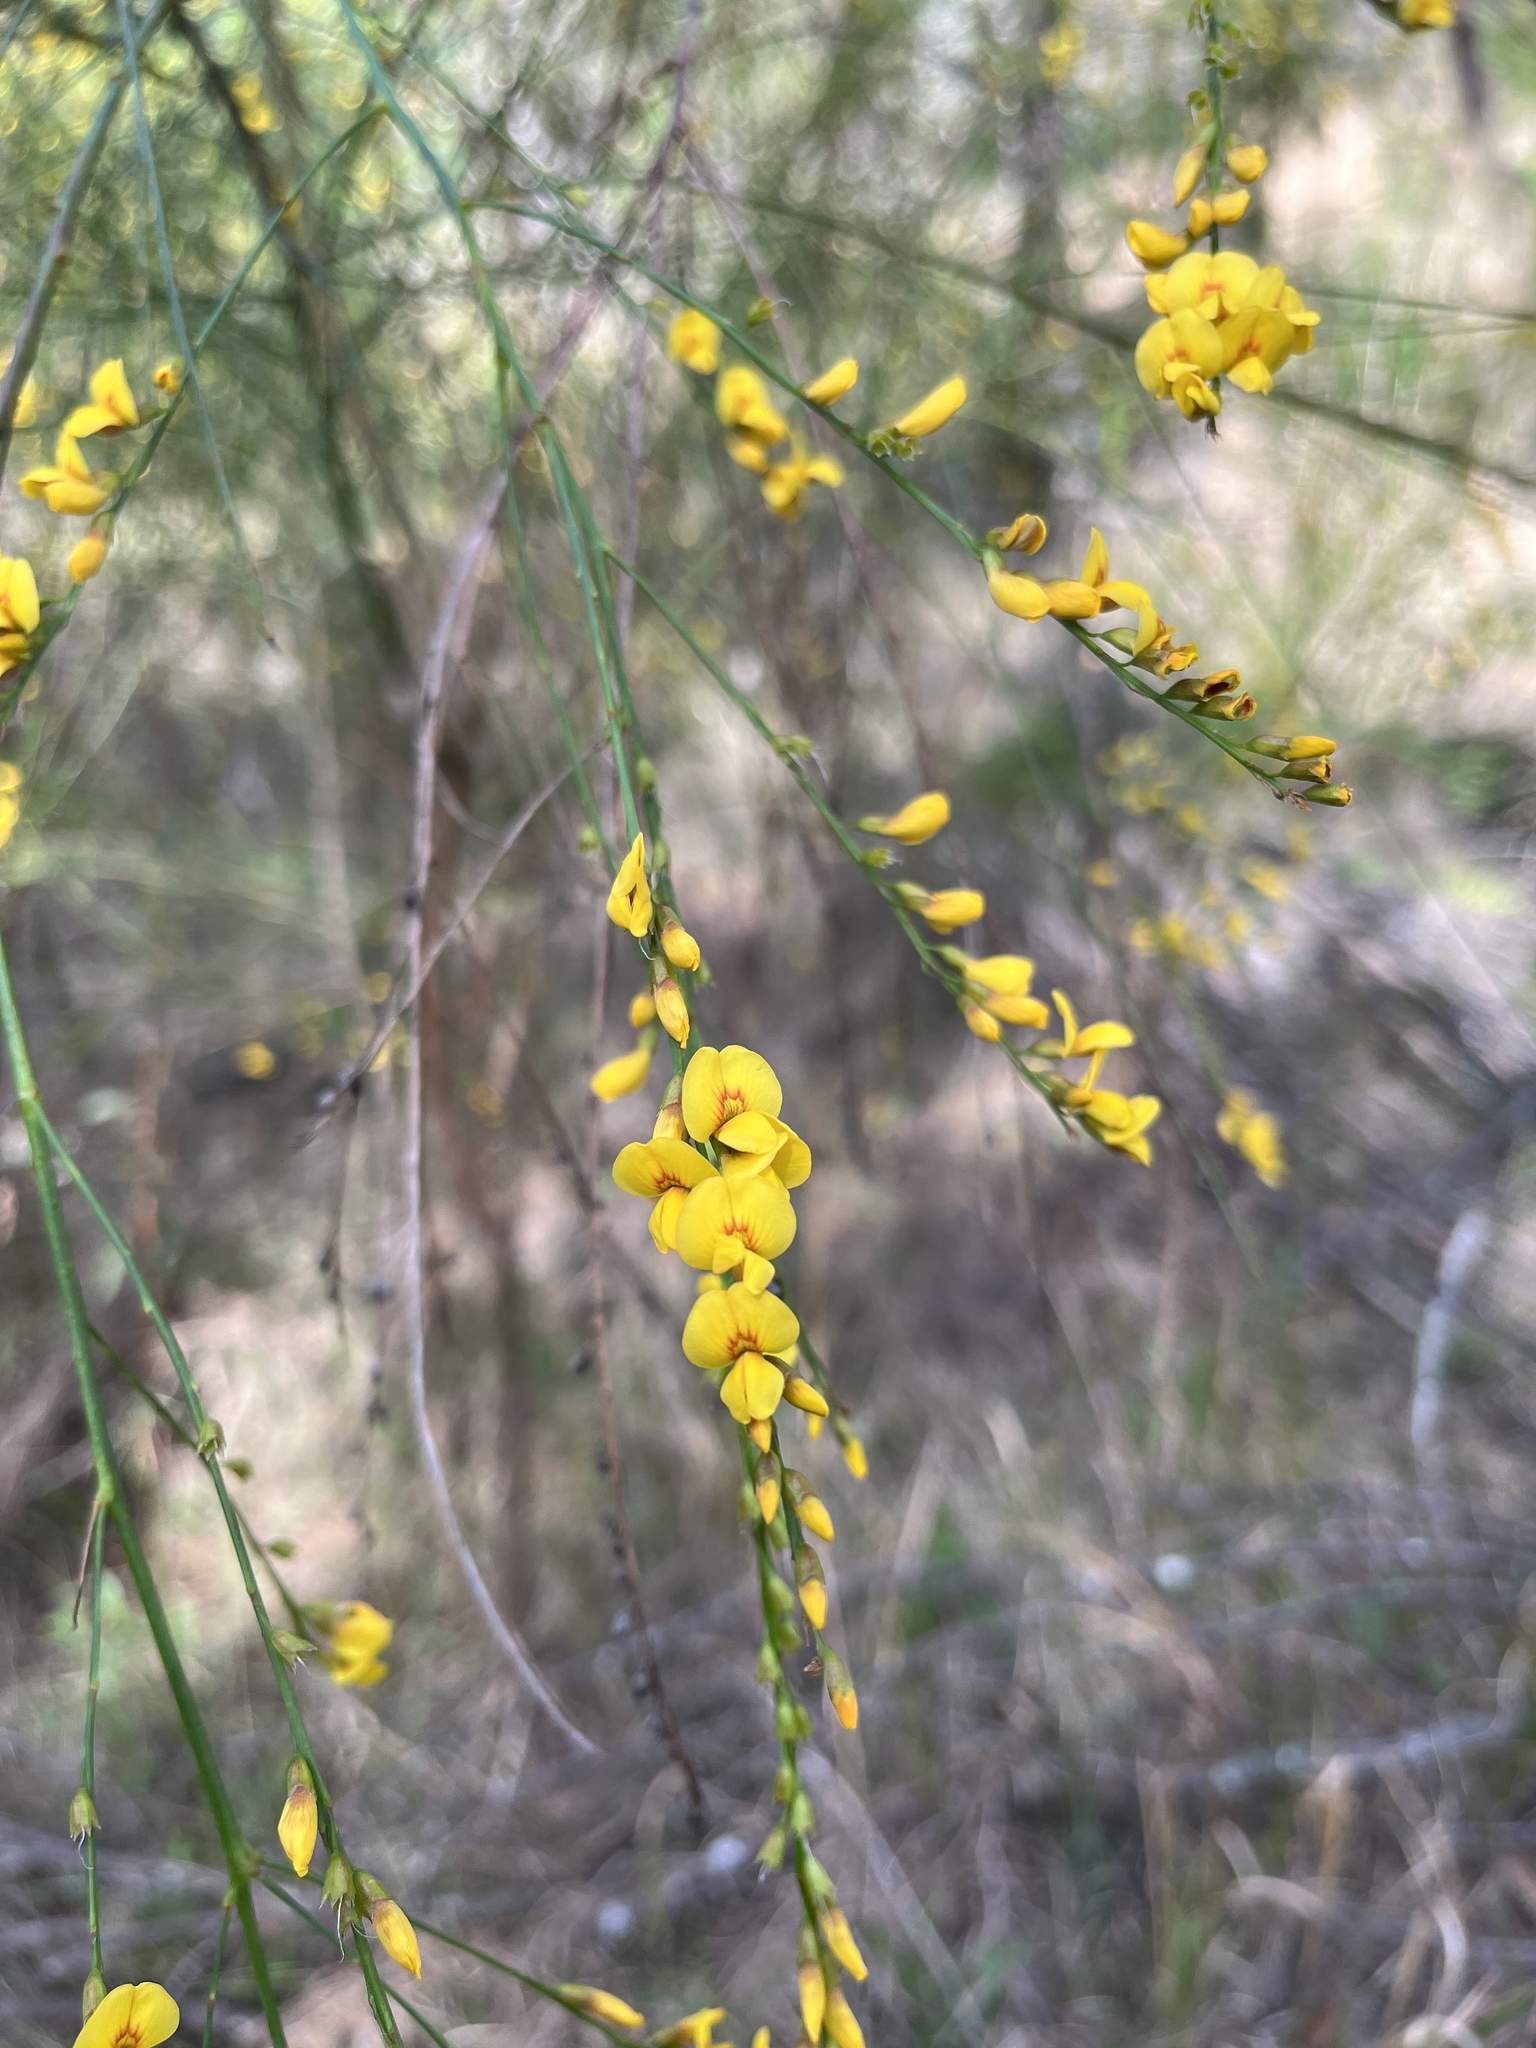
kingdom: Plantae
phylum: Tracheophyta
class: Magnoliopsida
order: Fabales
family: Fabaceae
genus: Viminaria
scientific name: Viminaria juncea
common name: Golden spray
